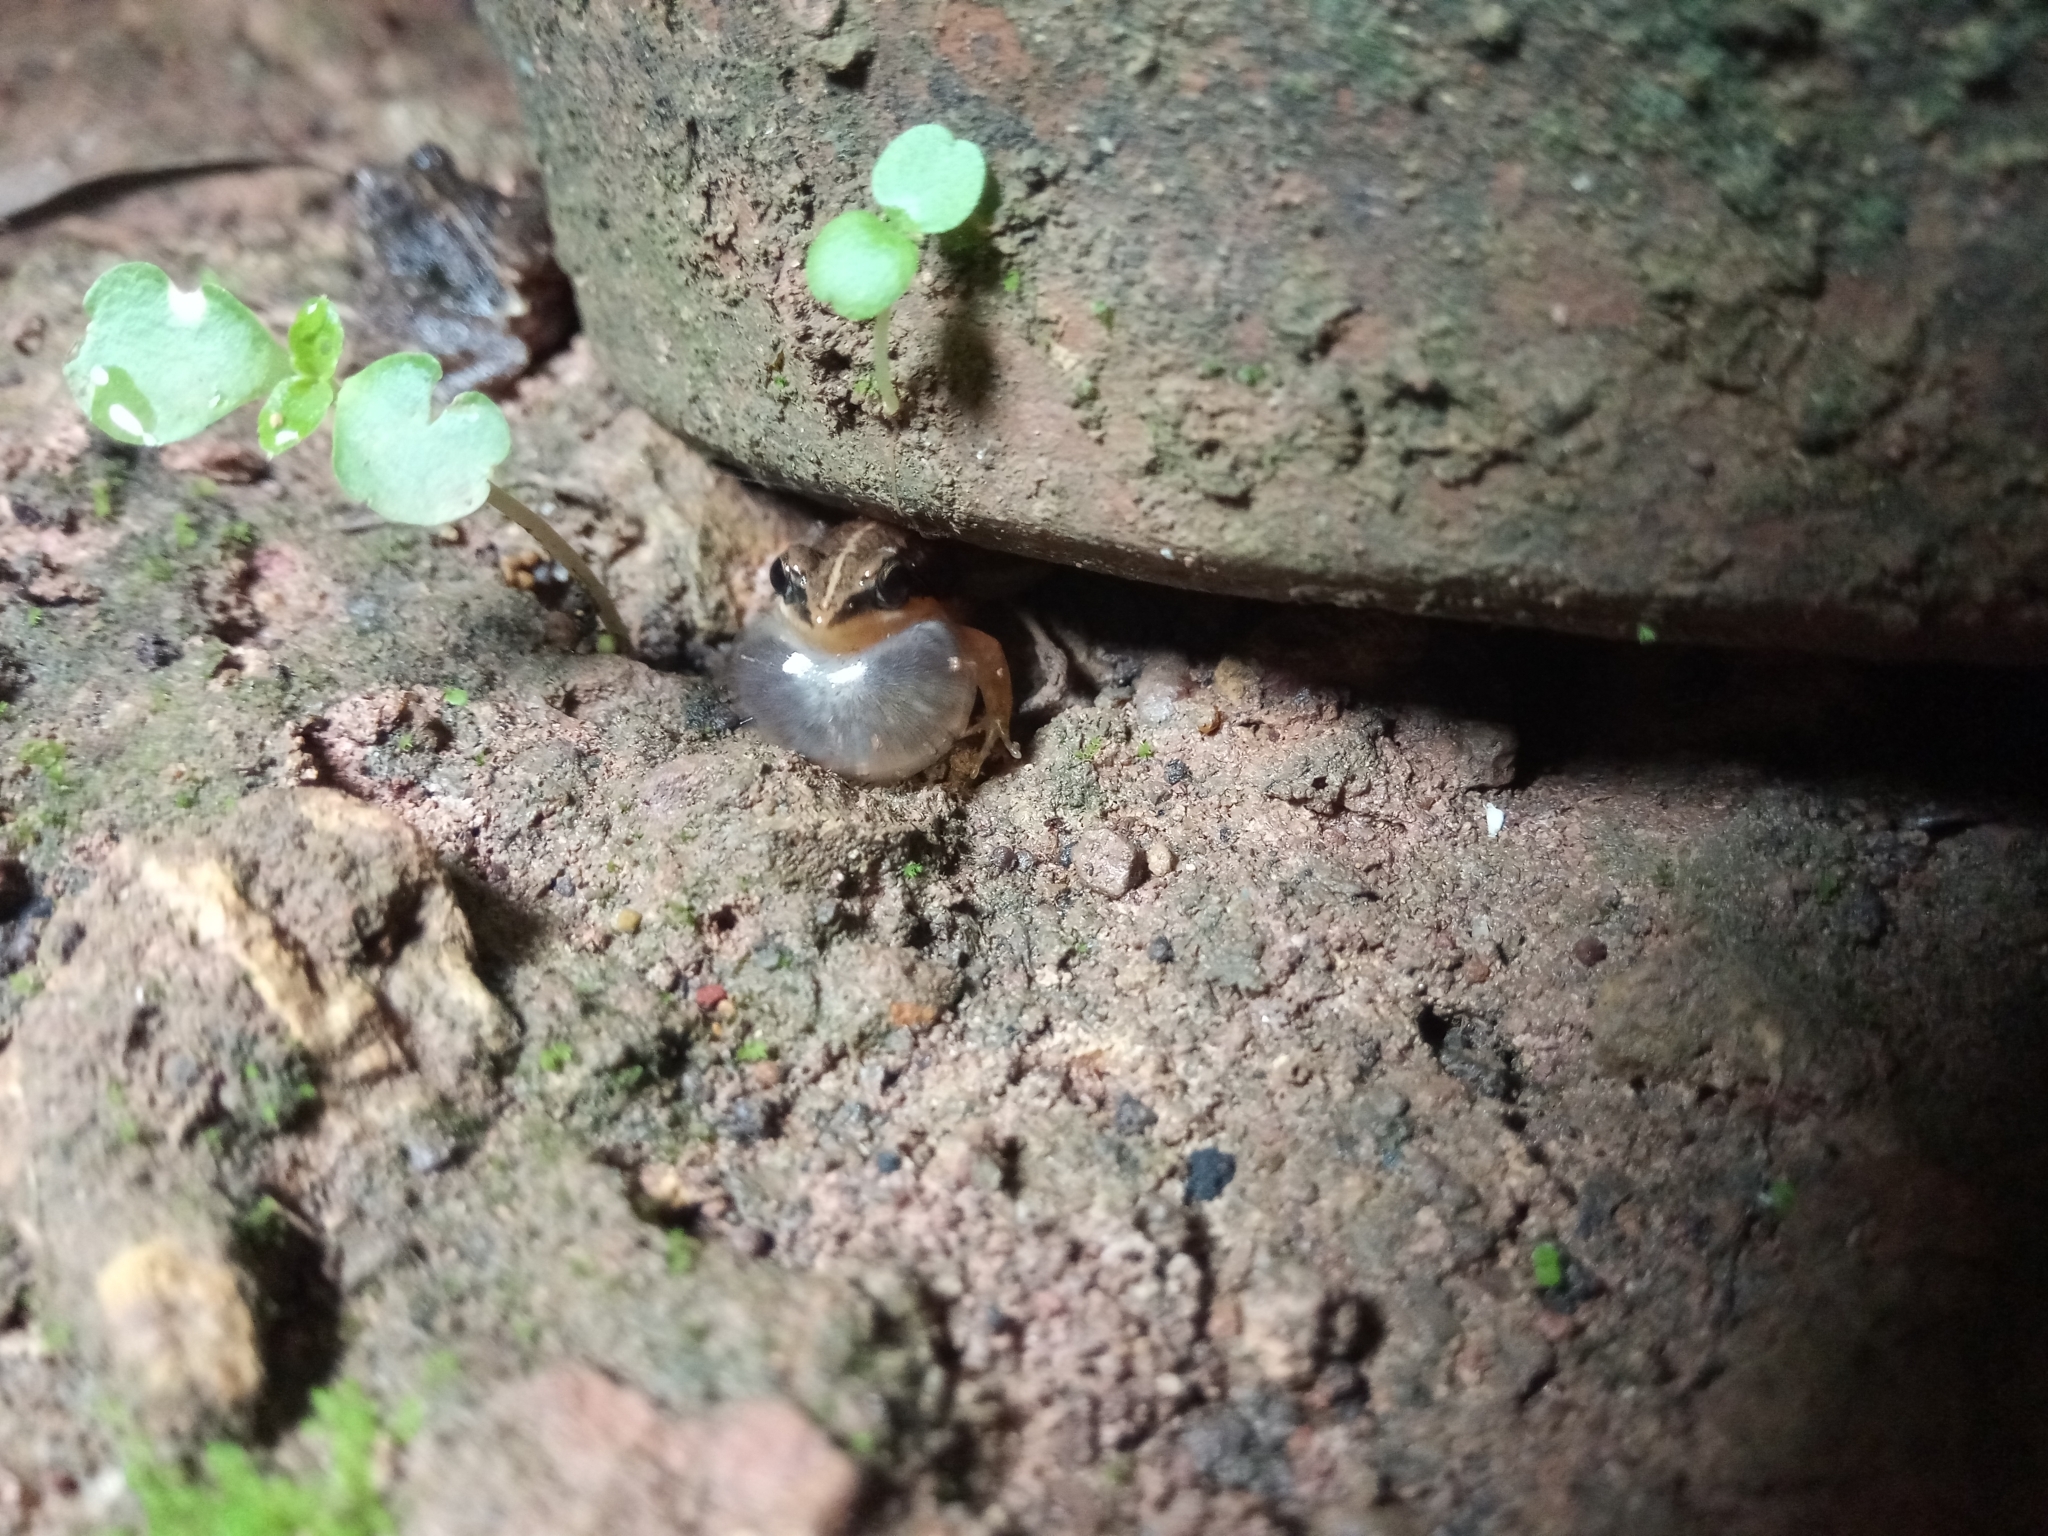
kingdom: Animalia
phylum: Chordata
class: Amphibia
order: Anura
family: Dicroglossidae
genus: Minervarya
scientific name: Minervarya syhadrensis
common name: Bombay wart frog
